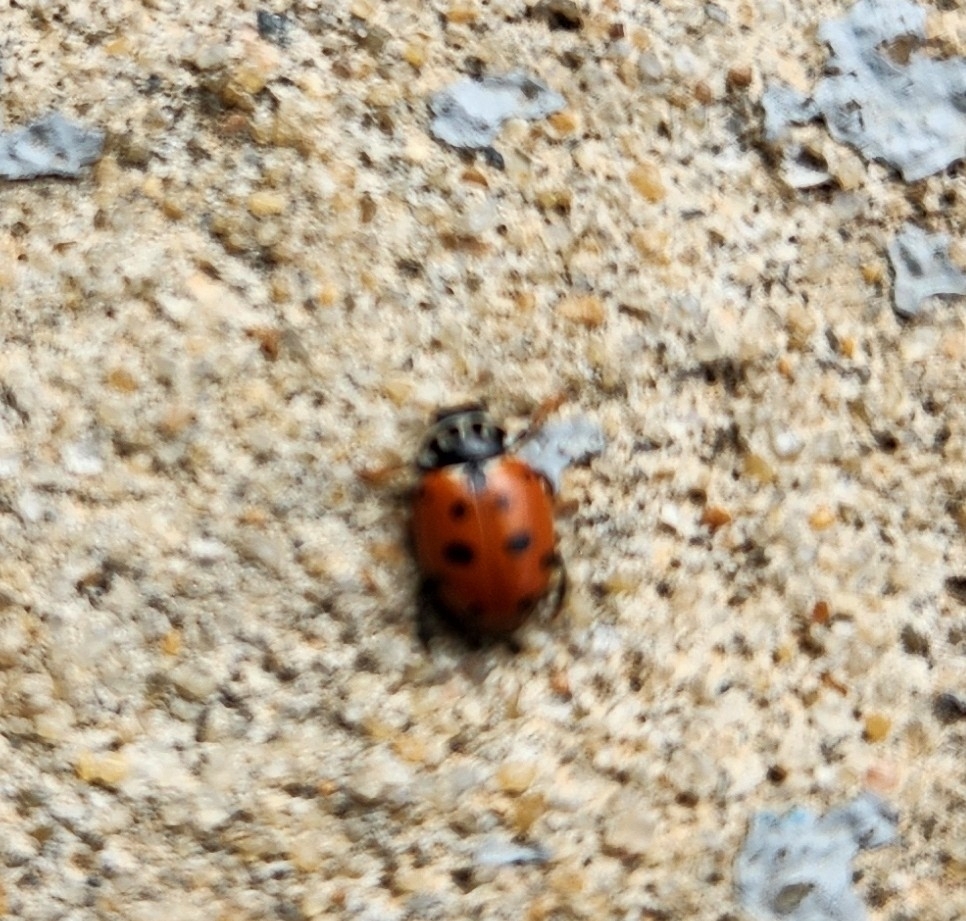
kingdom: Animalia
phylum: Arthropoda
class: Insecta
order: Coleoptera
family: Coccinellidae
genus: Hippodamia
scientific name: Hippodamia variegata
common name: Ladybird beetle
